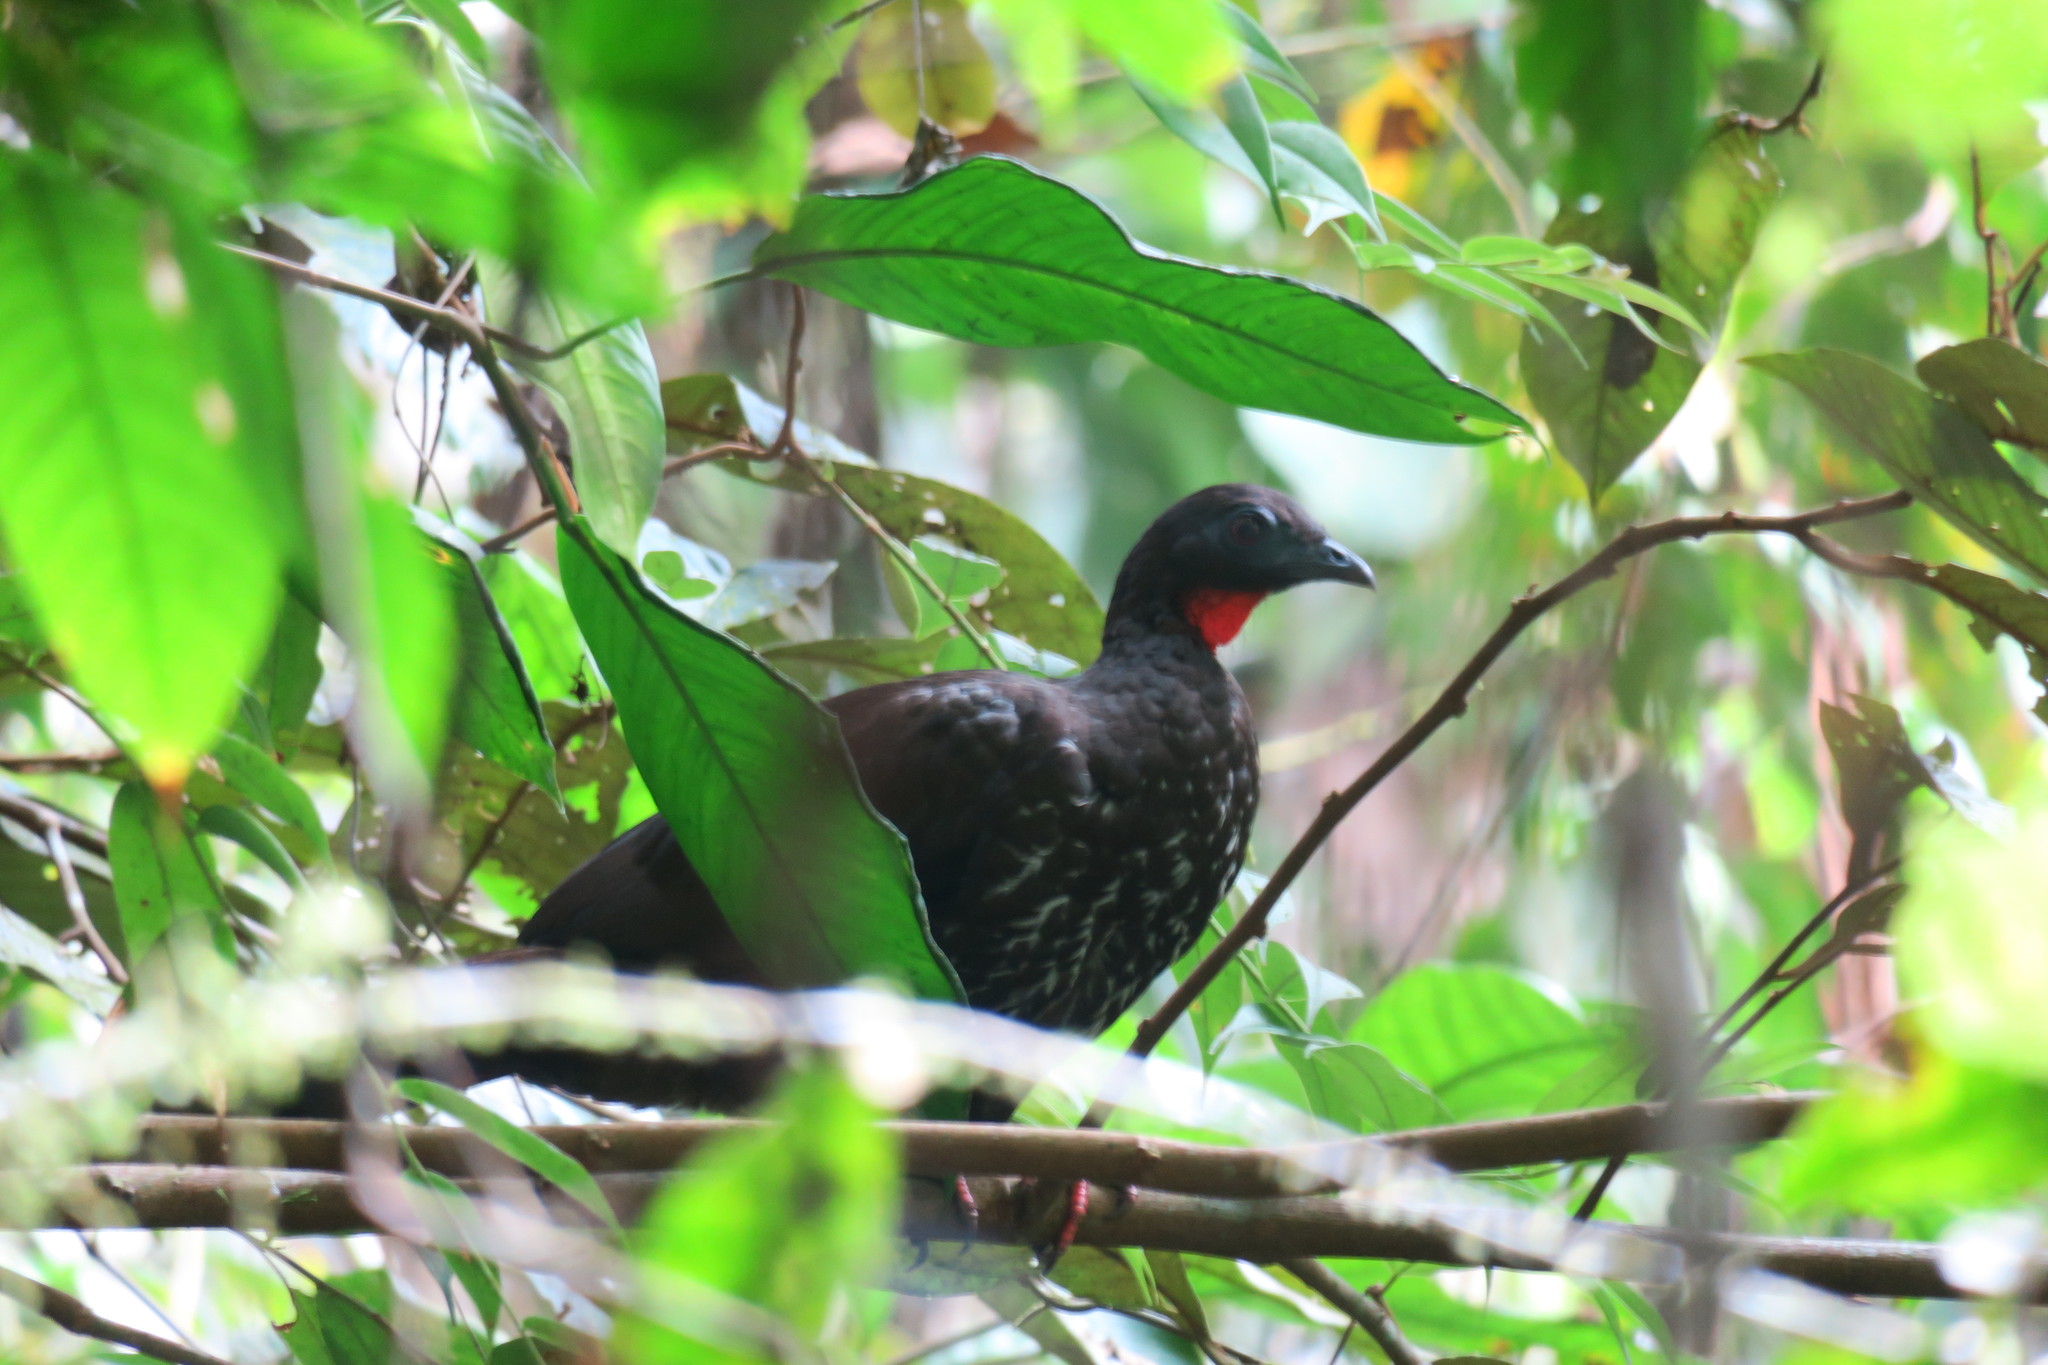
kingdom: Animalia
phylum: Chordata
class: Aves
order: Galliformes
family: Cracidae
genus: Penelope
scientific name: Penelope ortoni
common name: Baudo guan
